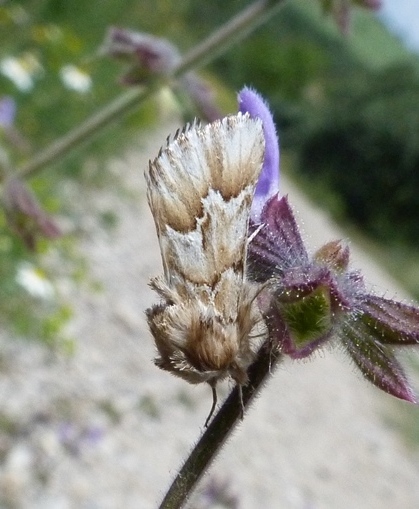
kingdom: Animalia
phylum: Arthropoda
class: Insecta
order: Lepidoptera
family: Noctuidae
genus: Acronicta
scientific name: Acronicta serratae
